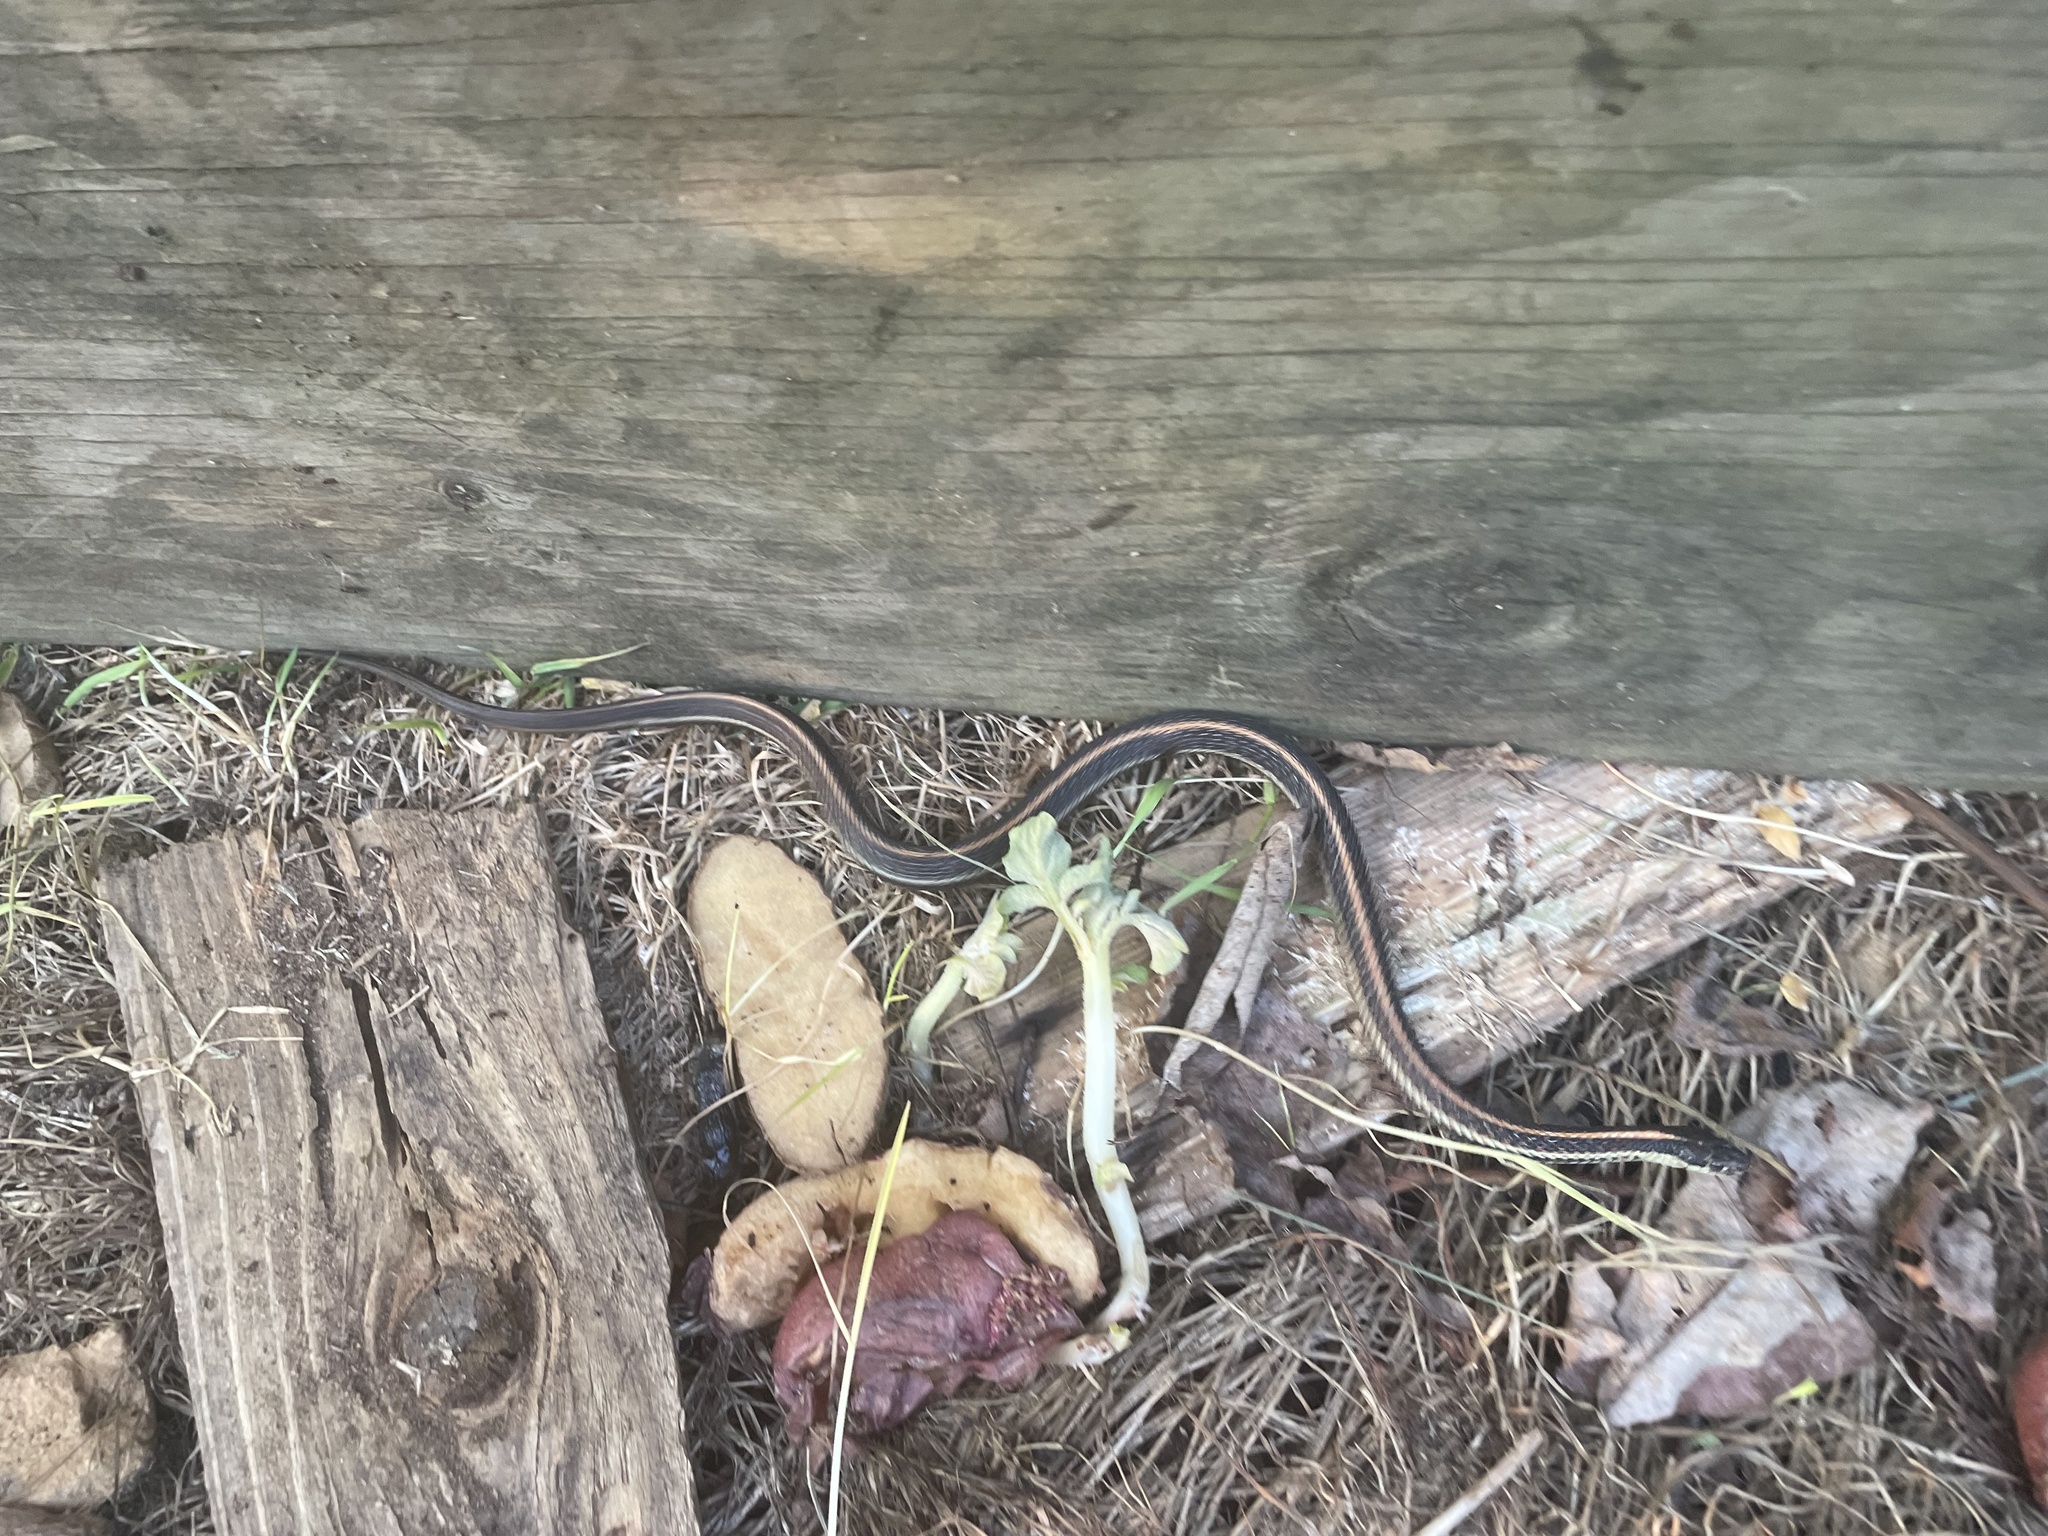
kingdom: Animalia
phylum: Chordata
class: Squamata
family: Colubridae
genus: Thamnophis
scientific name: Thamnophis ordinoides
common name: Northwestern garter snake
